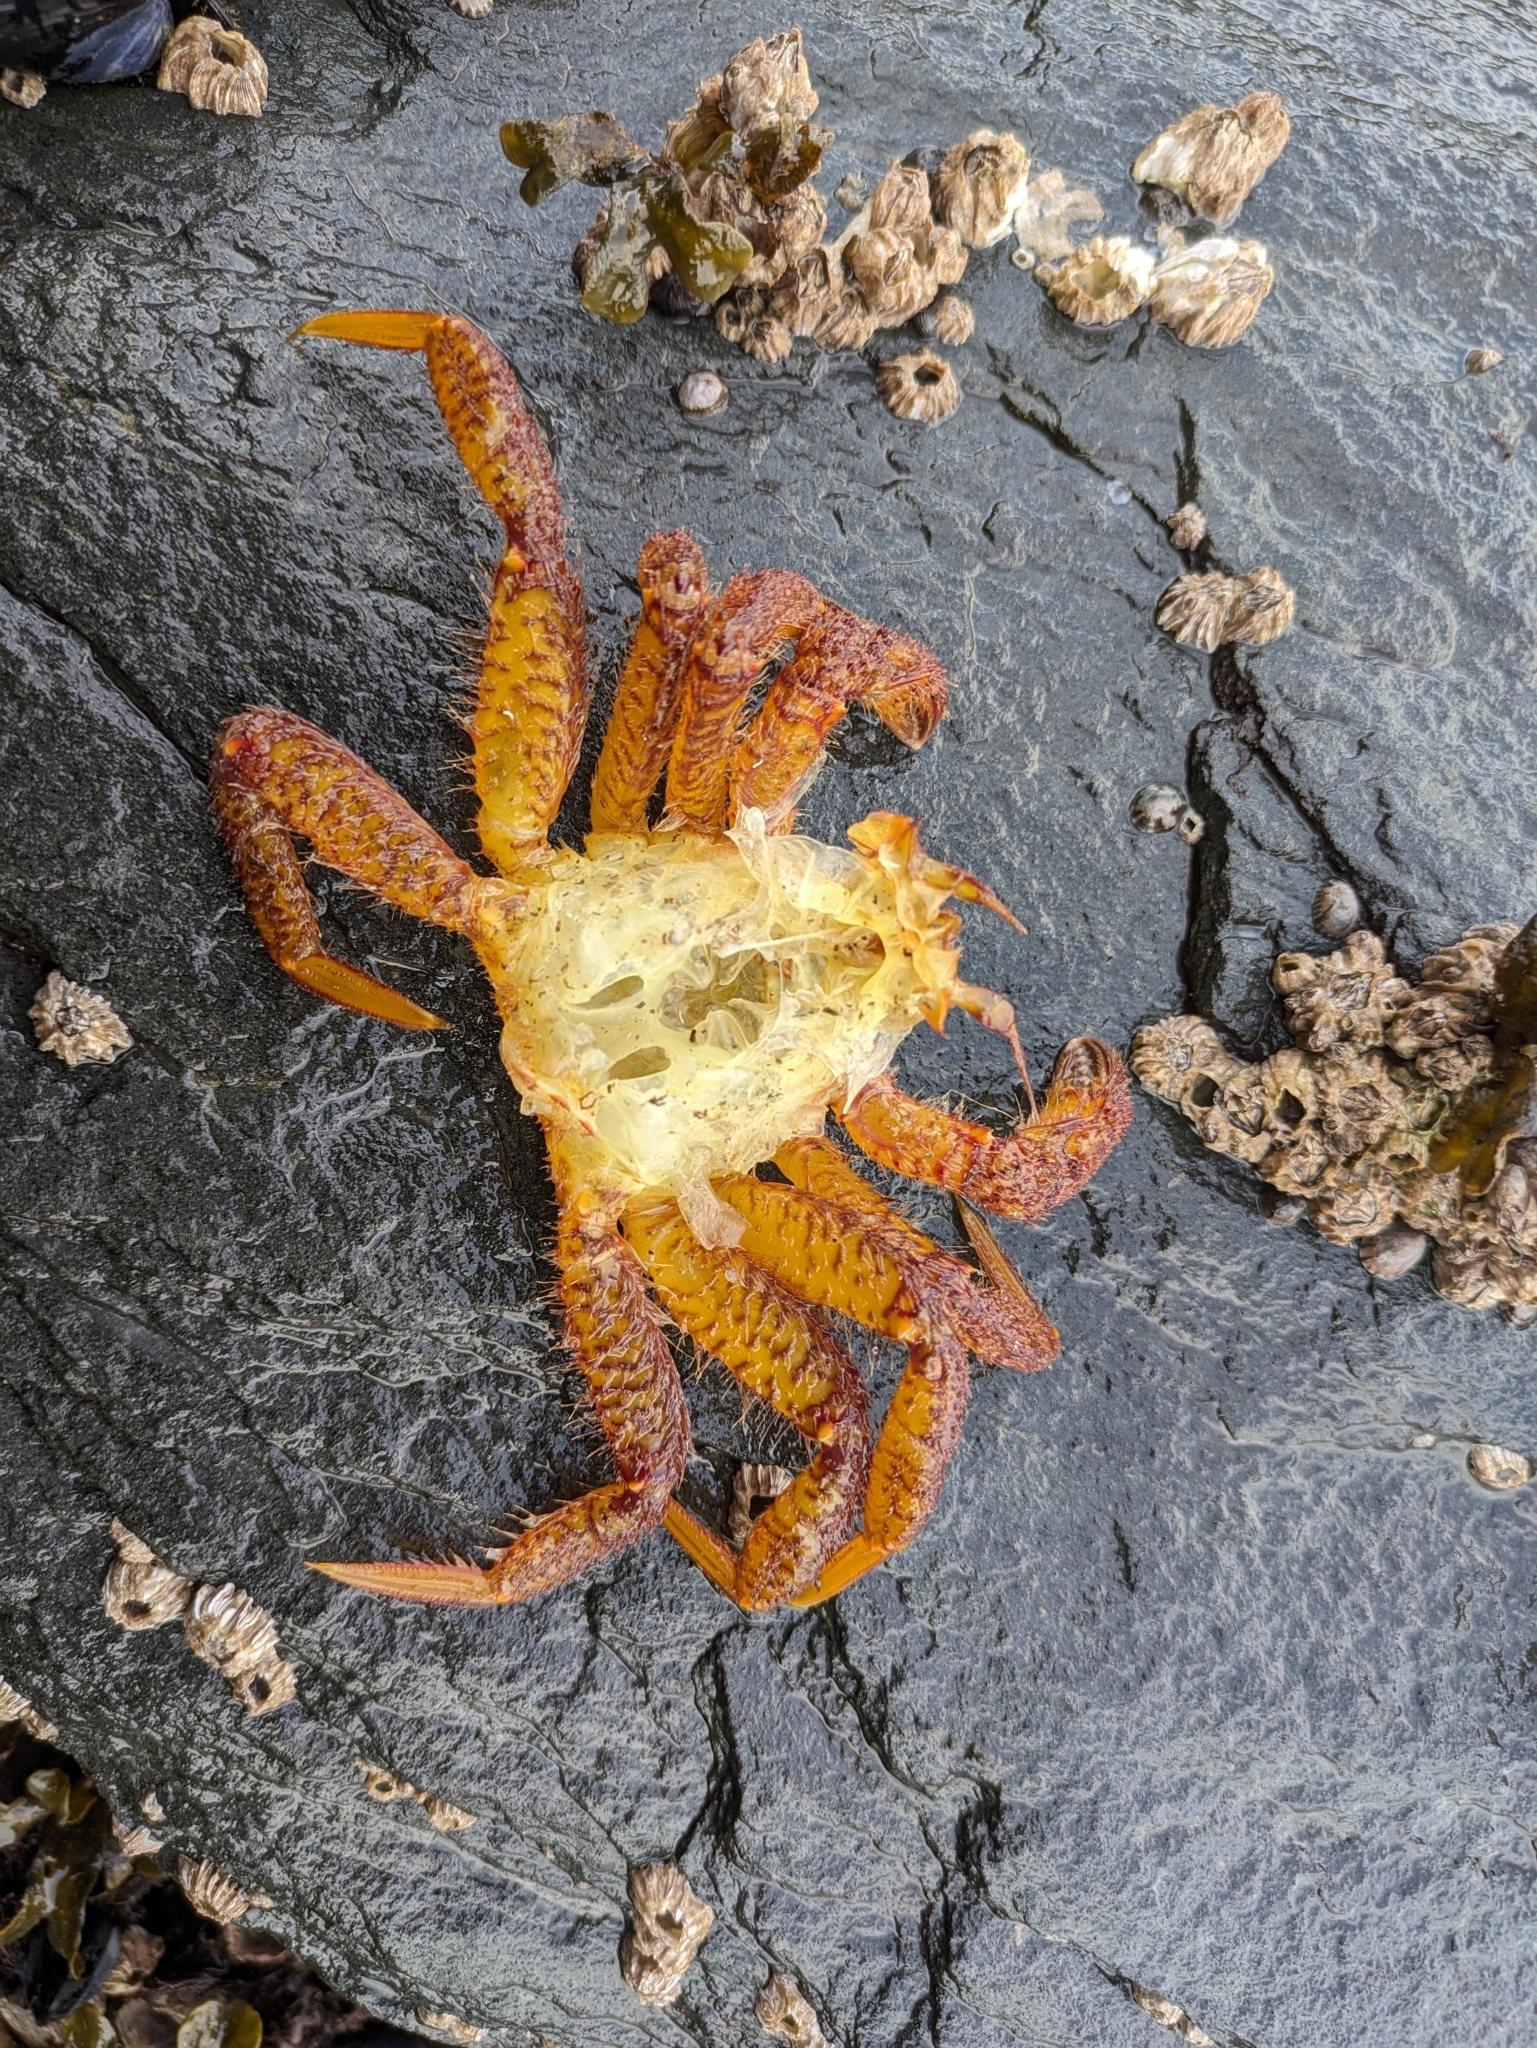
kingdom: Animalia
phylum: Arthropoda
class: Malacostraca
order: Decapoda
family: Cheiragonidae
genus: Telmessus
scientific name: Telmessus cheiragonus
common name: Helmet crab
